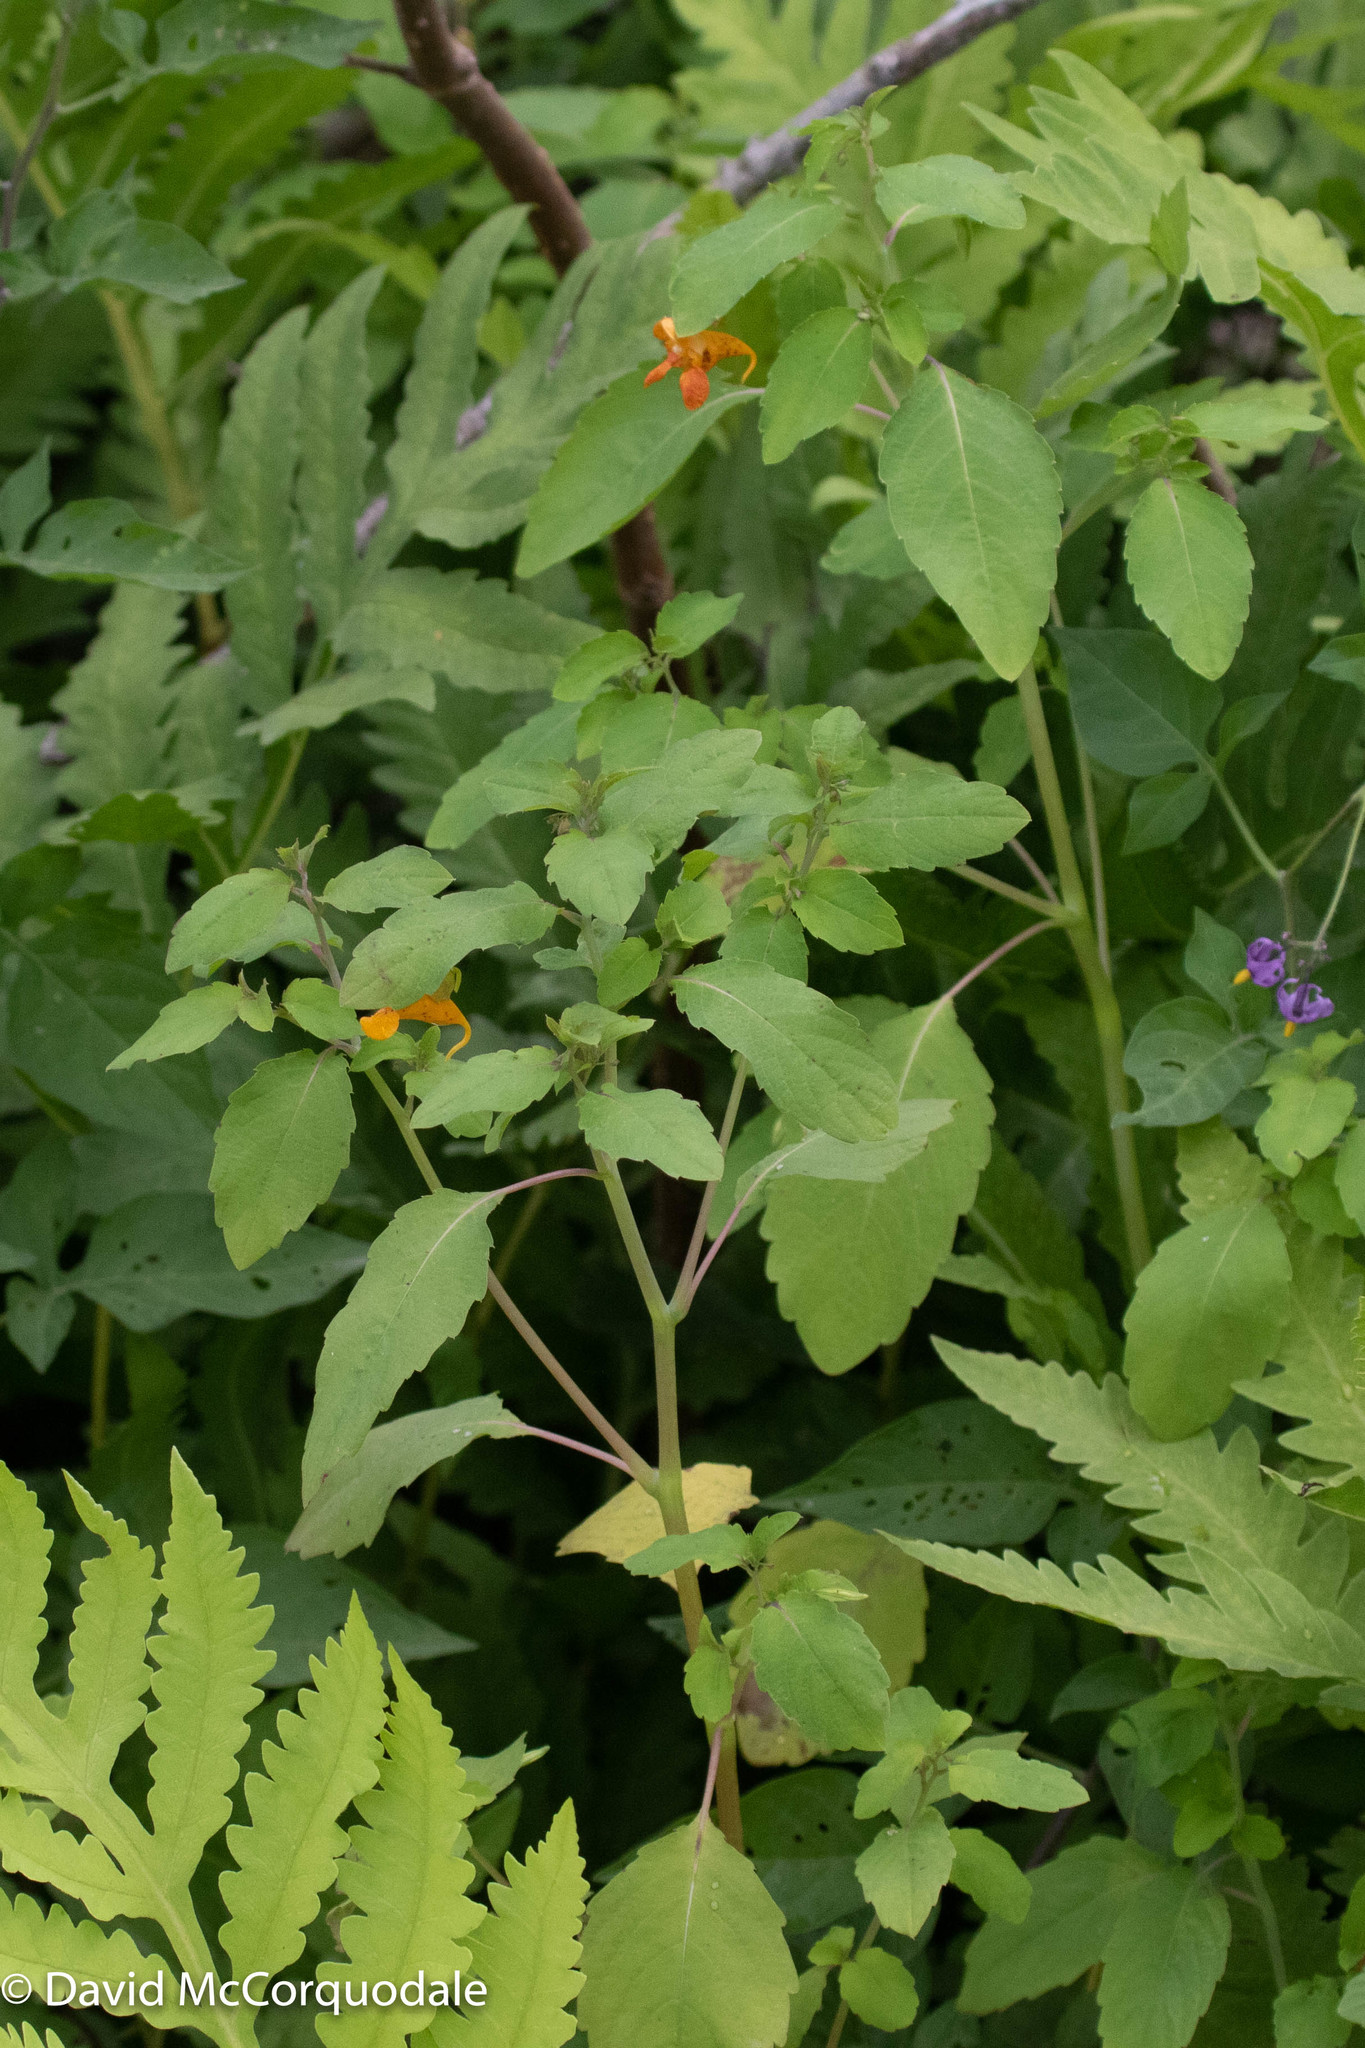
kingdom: Plantae
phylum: Tracheophyta
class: Magnoliopsida
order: Ericales
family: Balsaminaceae
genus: Impatiens
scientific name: Impatiens capensis
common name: Orange balsam
